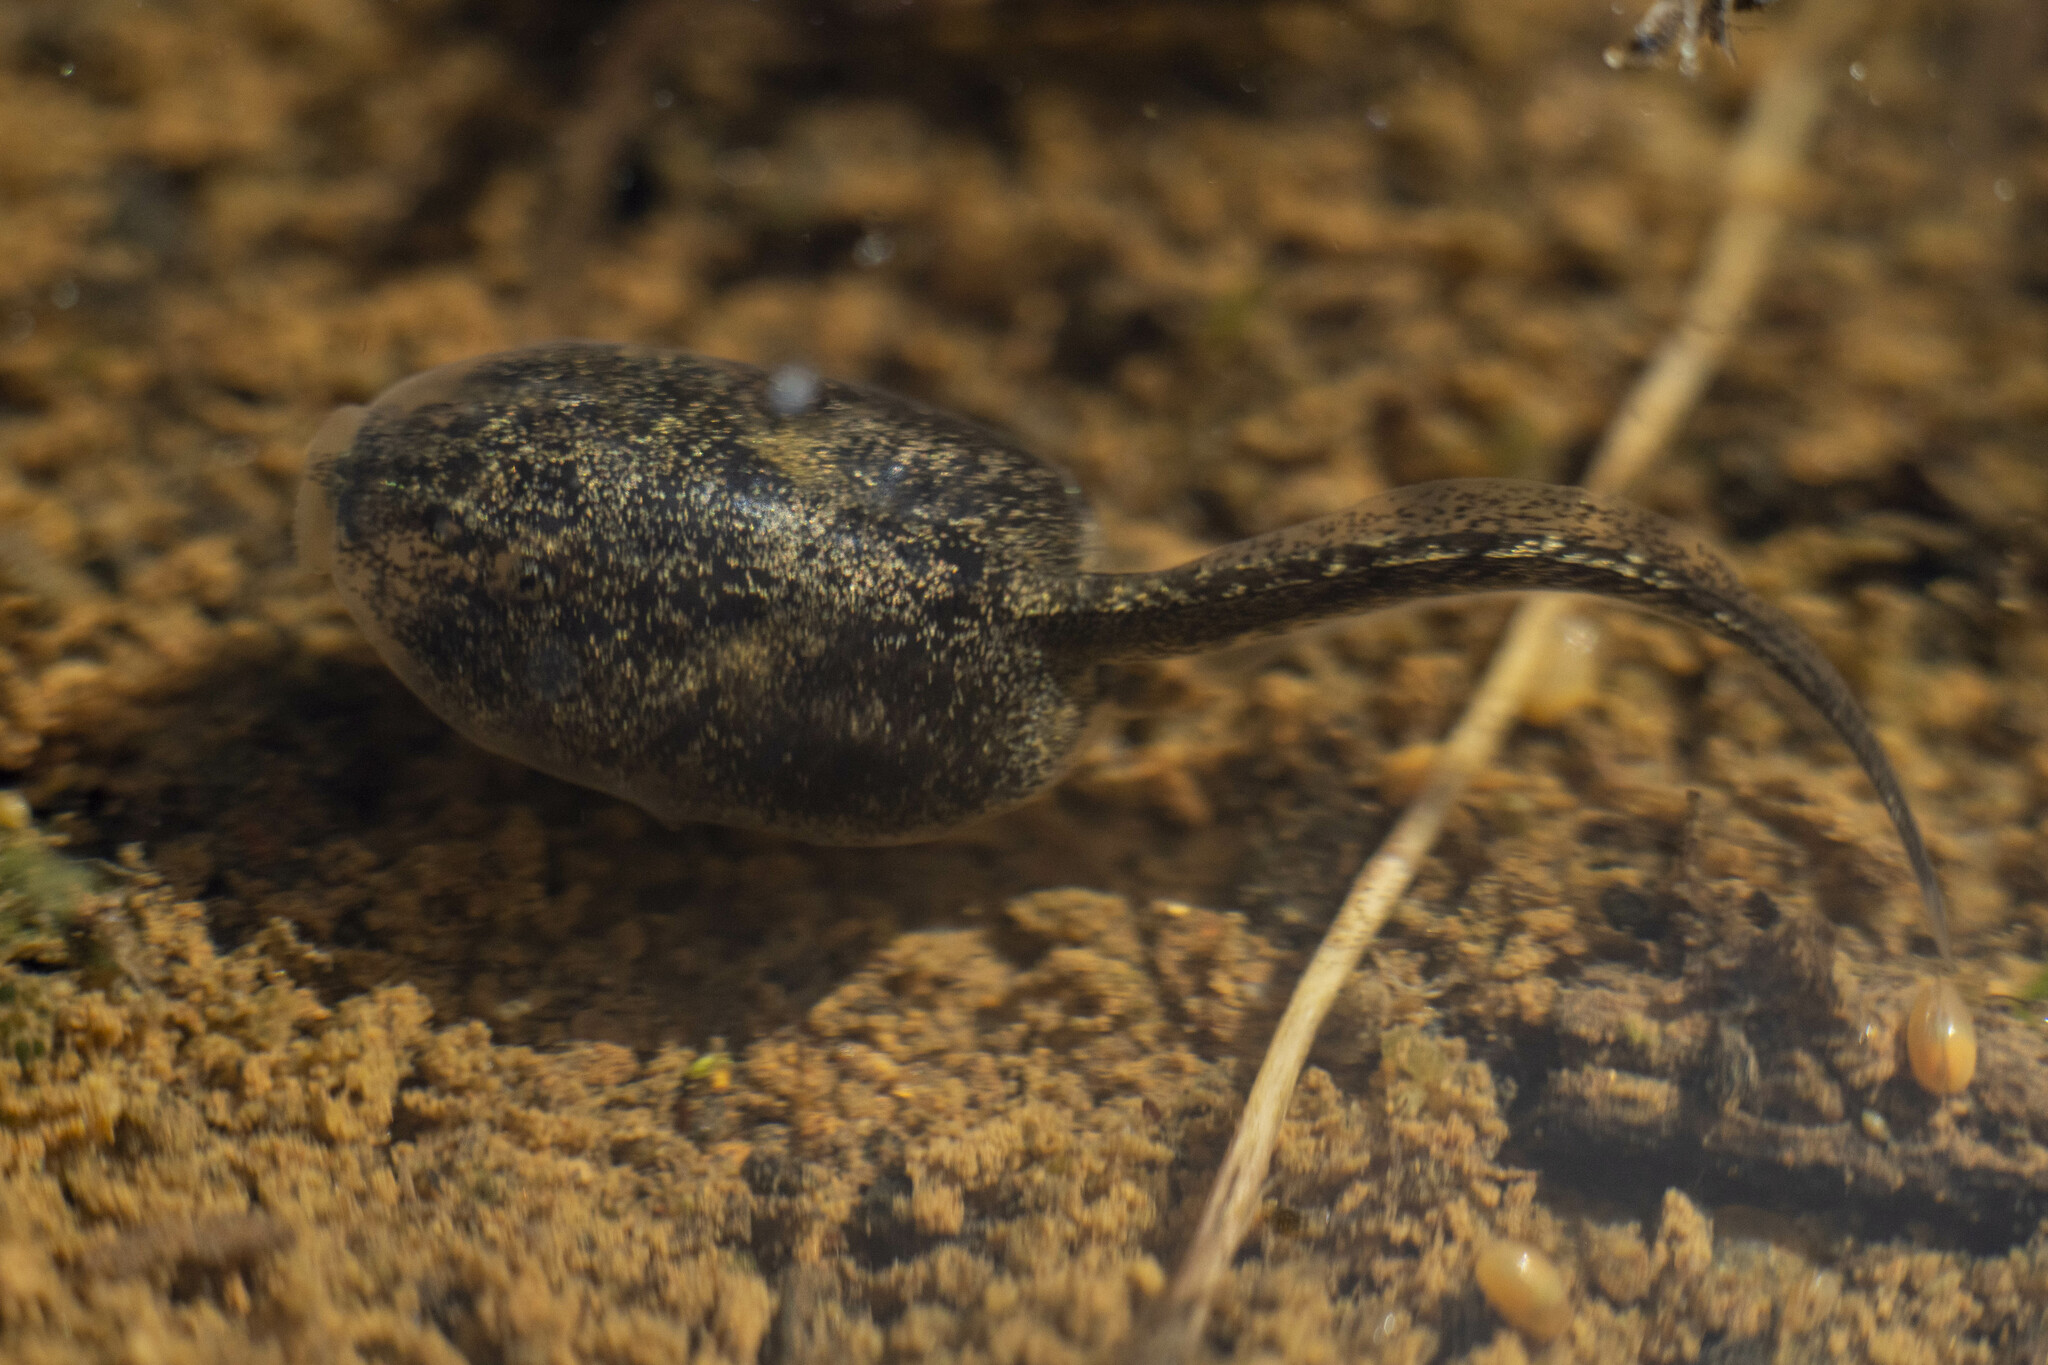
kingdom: Animalia
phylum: Chordata
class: Amphibia
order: Anura
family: Scaphiopodidae
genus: Spea
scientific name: Spea hammondii
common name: Western spadefoot toad
